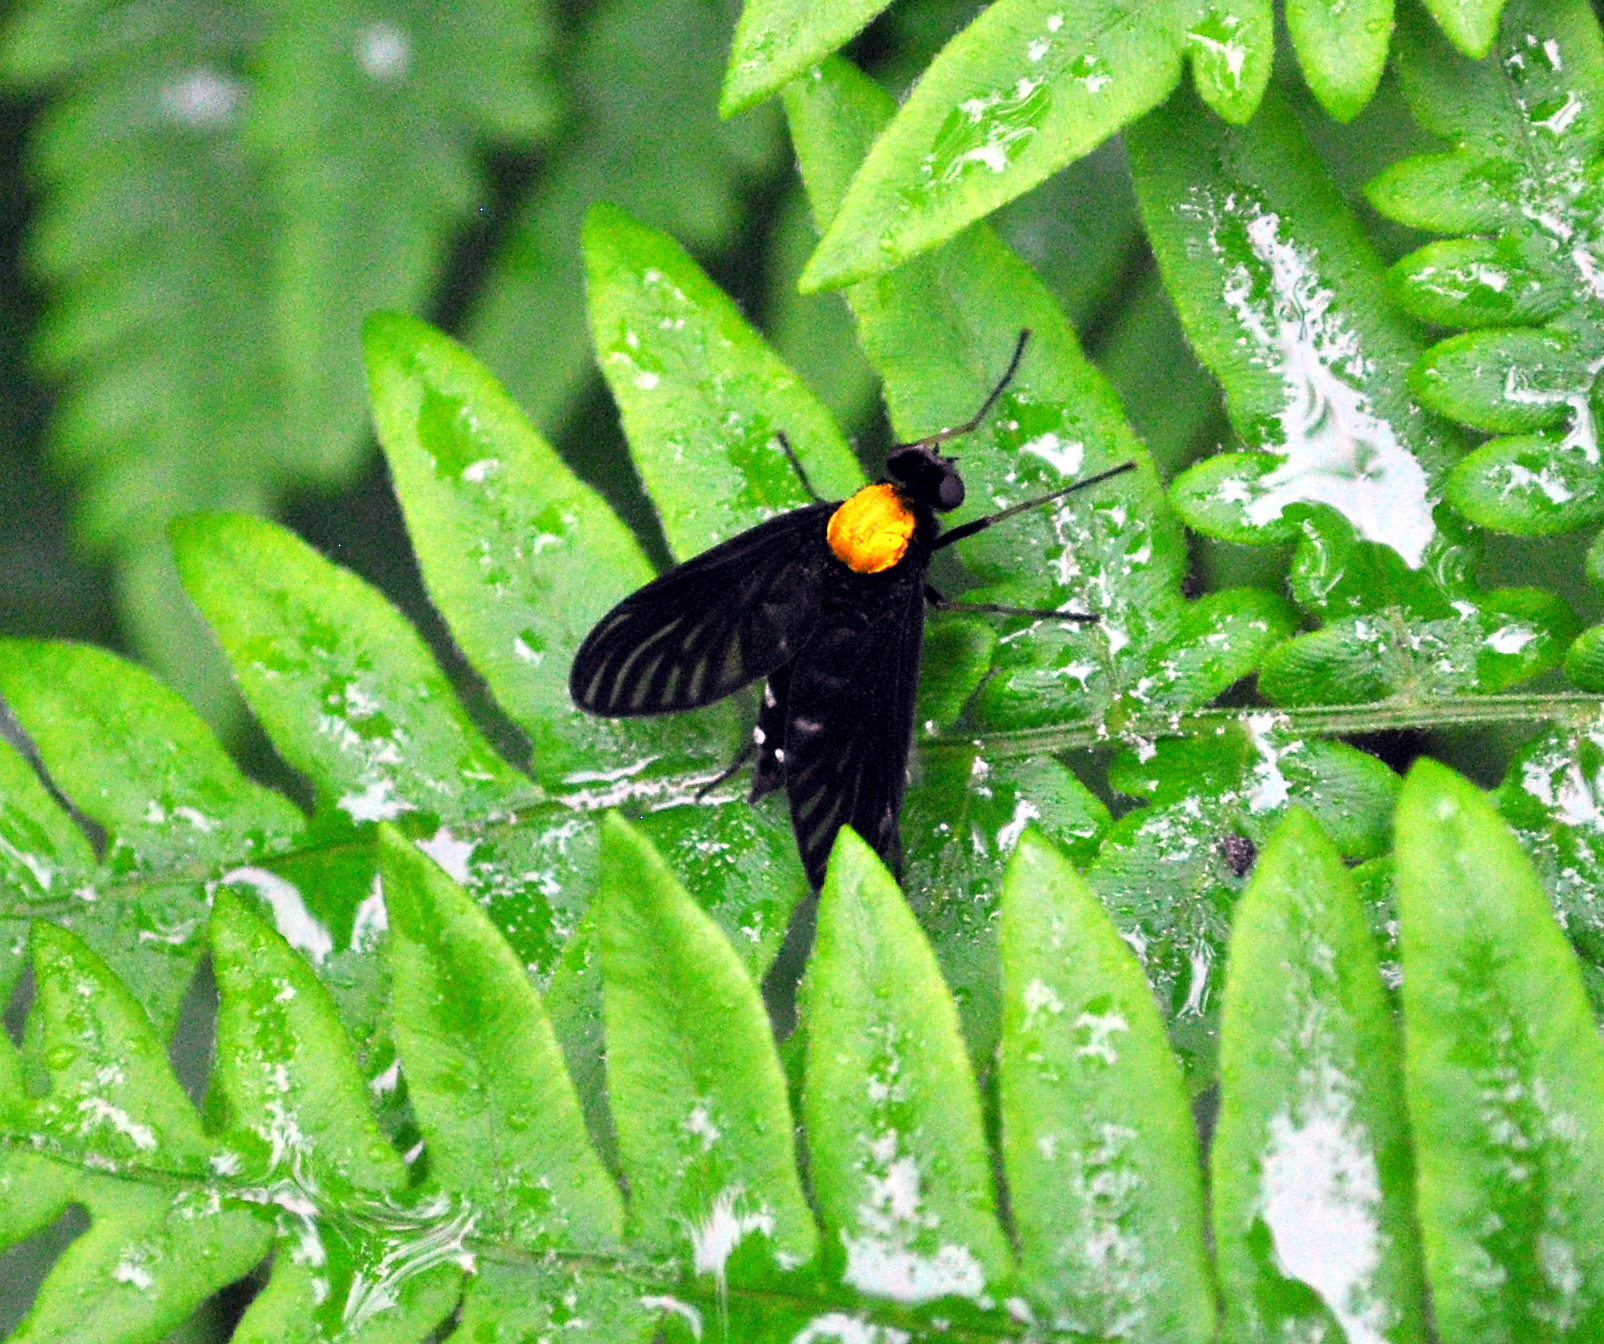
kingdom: Animalia
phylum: Arthropoda
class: Insecta
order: Diptera
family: Rhagionidae
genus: Chrysopilus
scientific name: Chrysopilus thoracicus
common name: Golden-backed snipe fly
